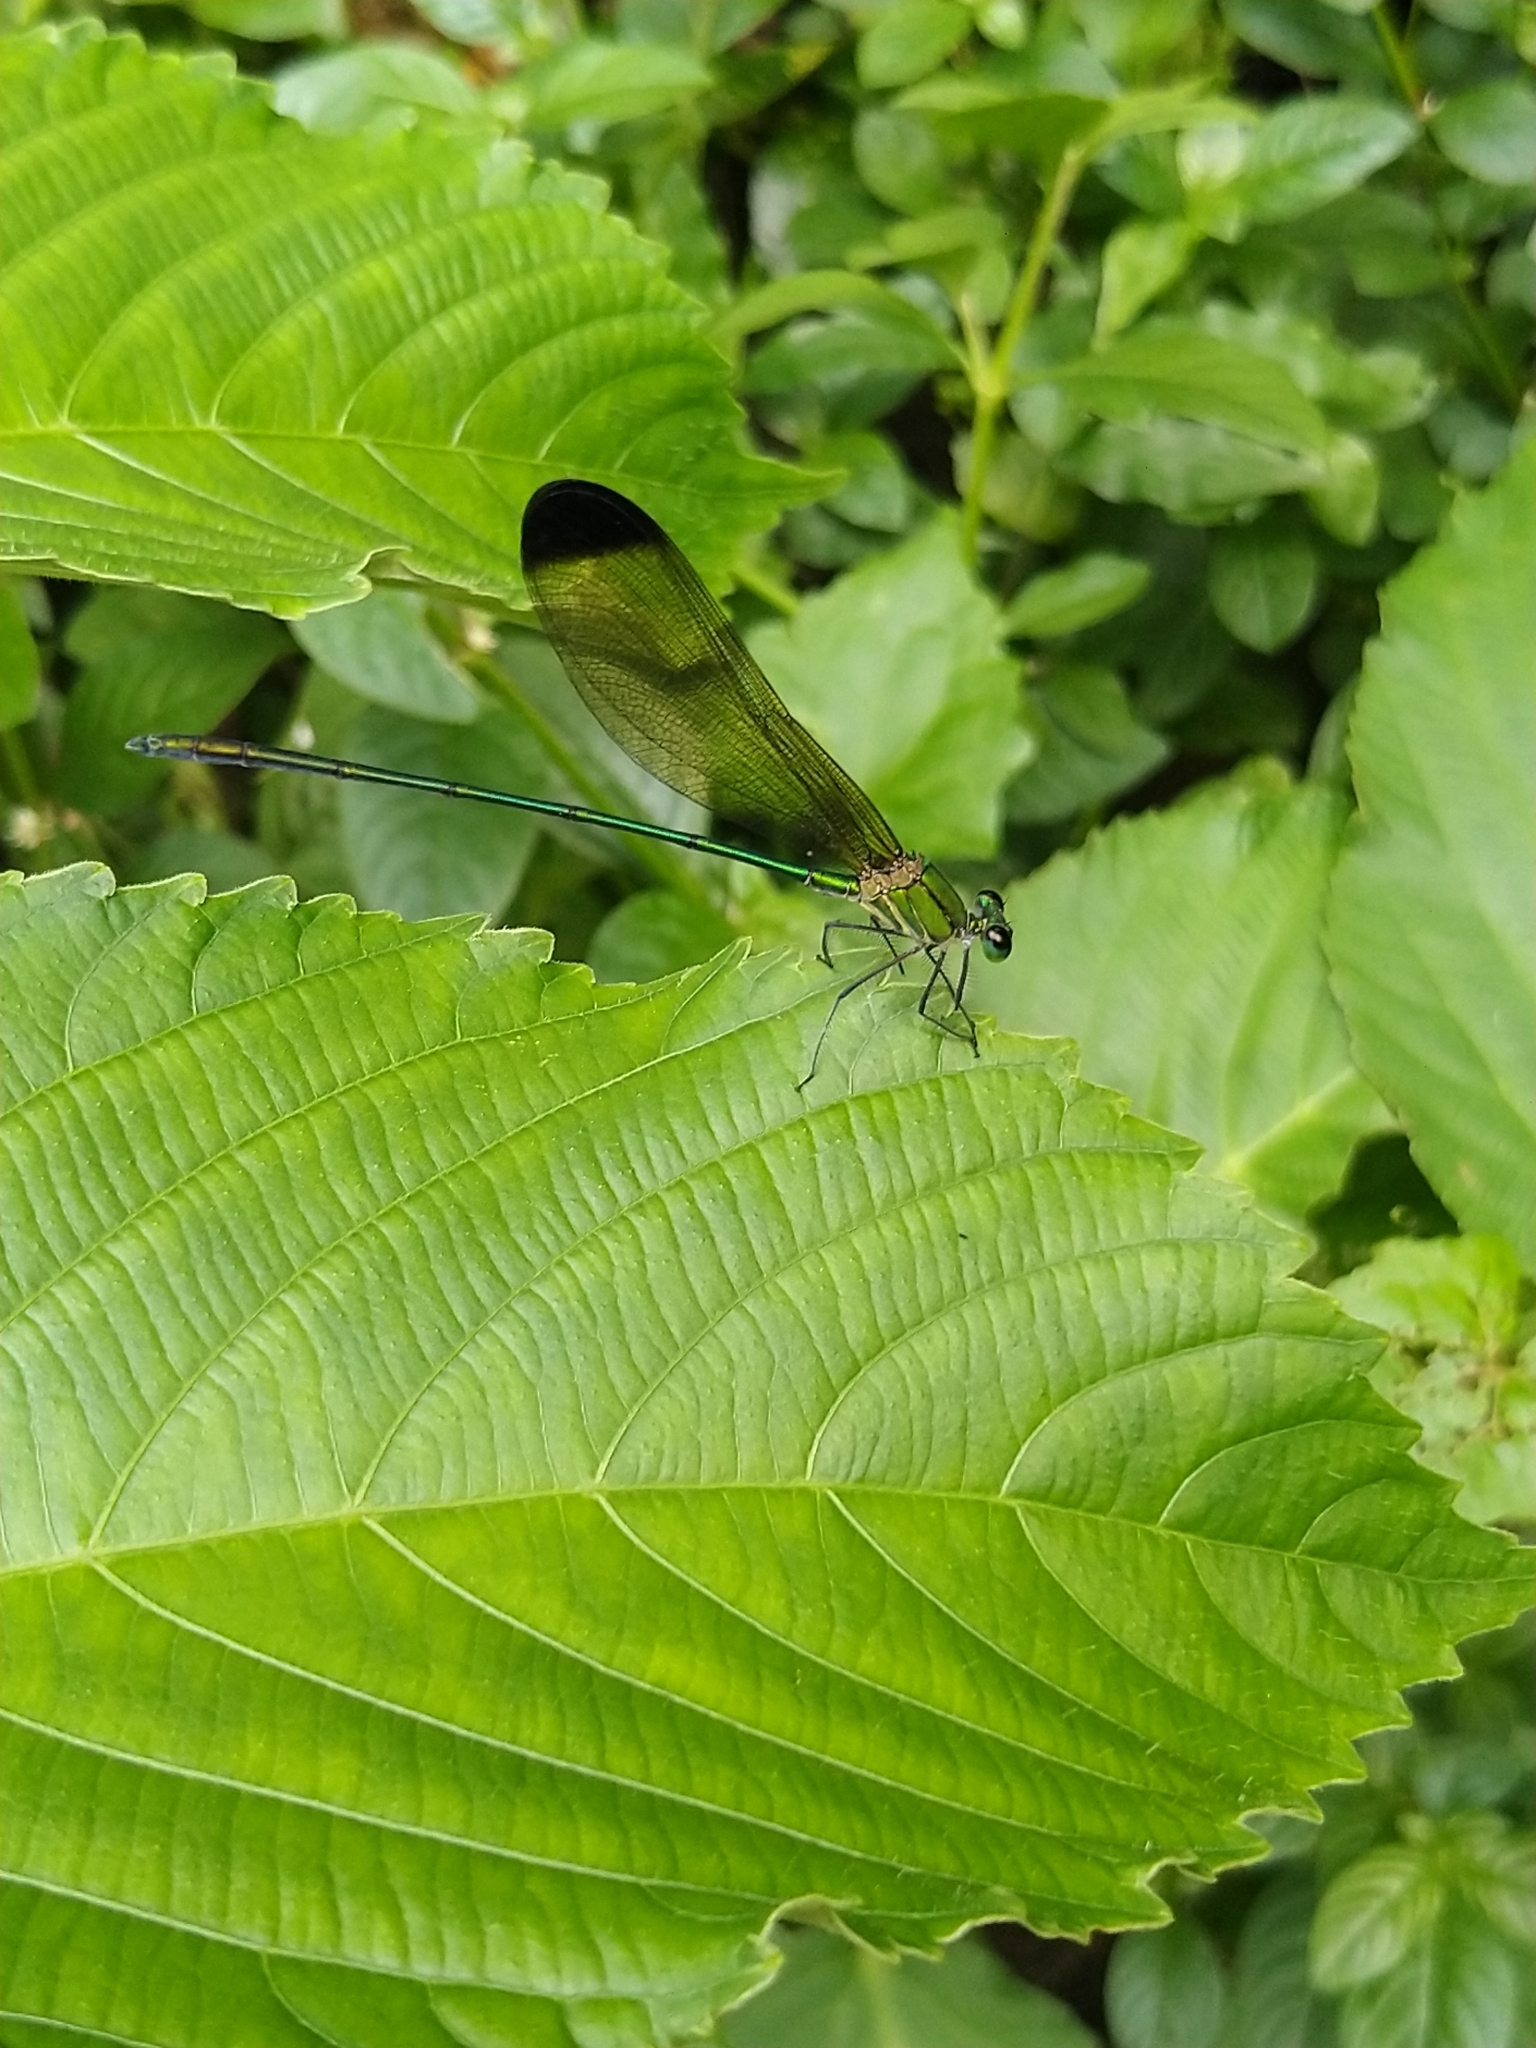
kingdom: Animalia
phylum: Arthropoda
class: Insecta
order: Odonata
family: Calopterygidae
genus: Vestalis
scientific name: Vestalis apicalis
